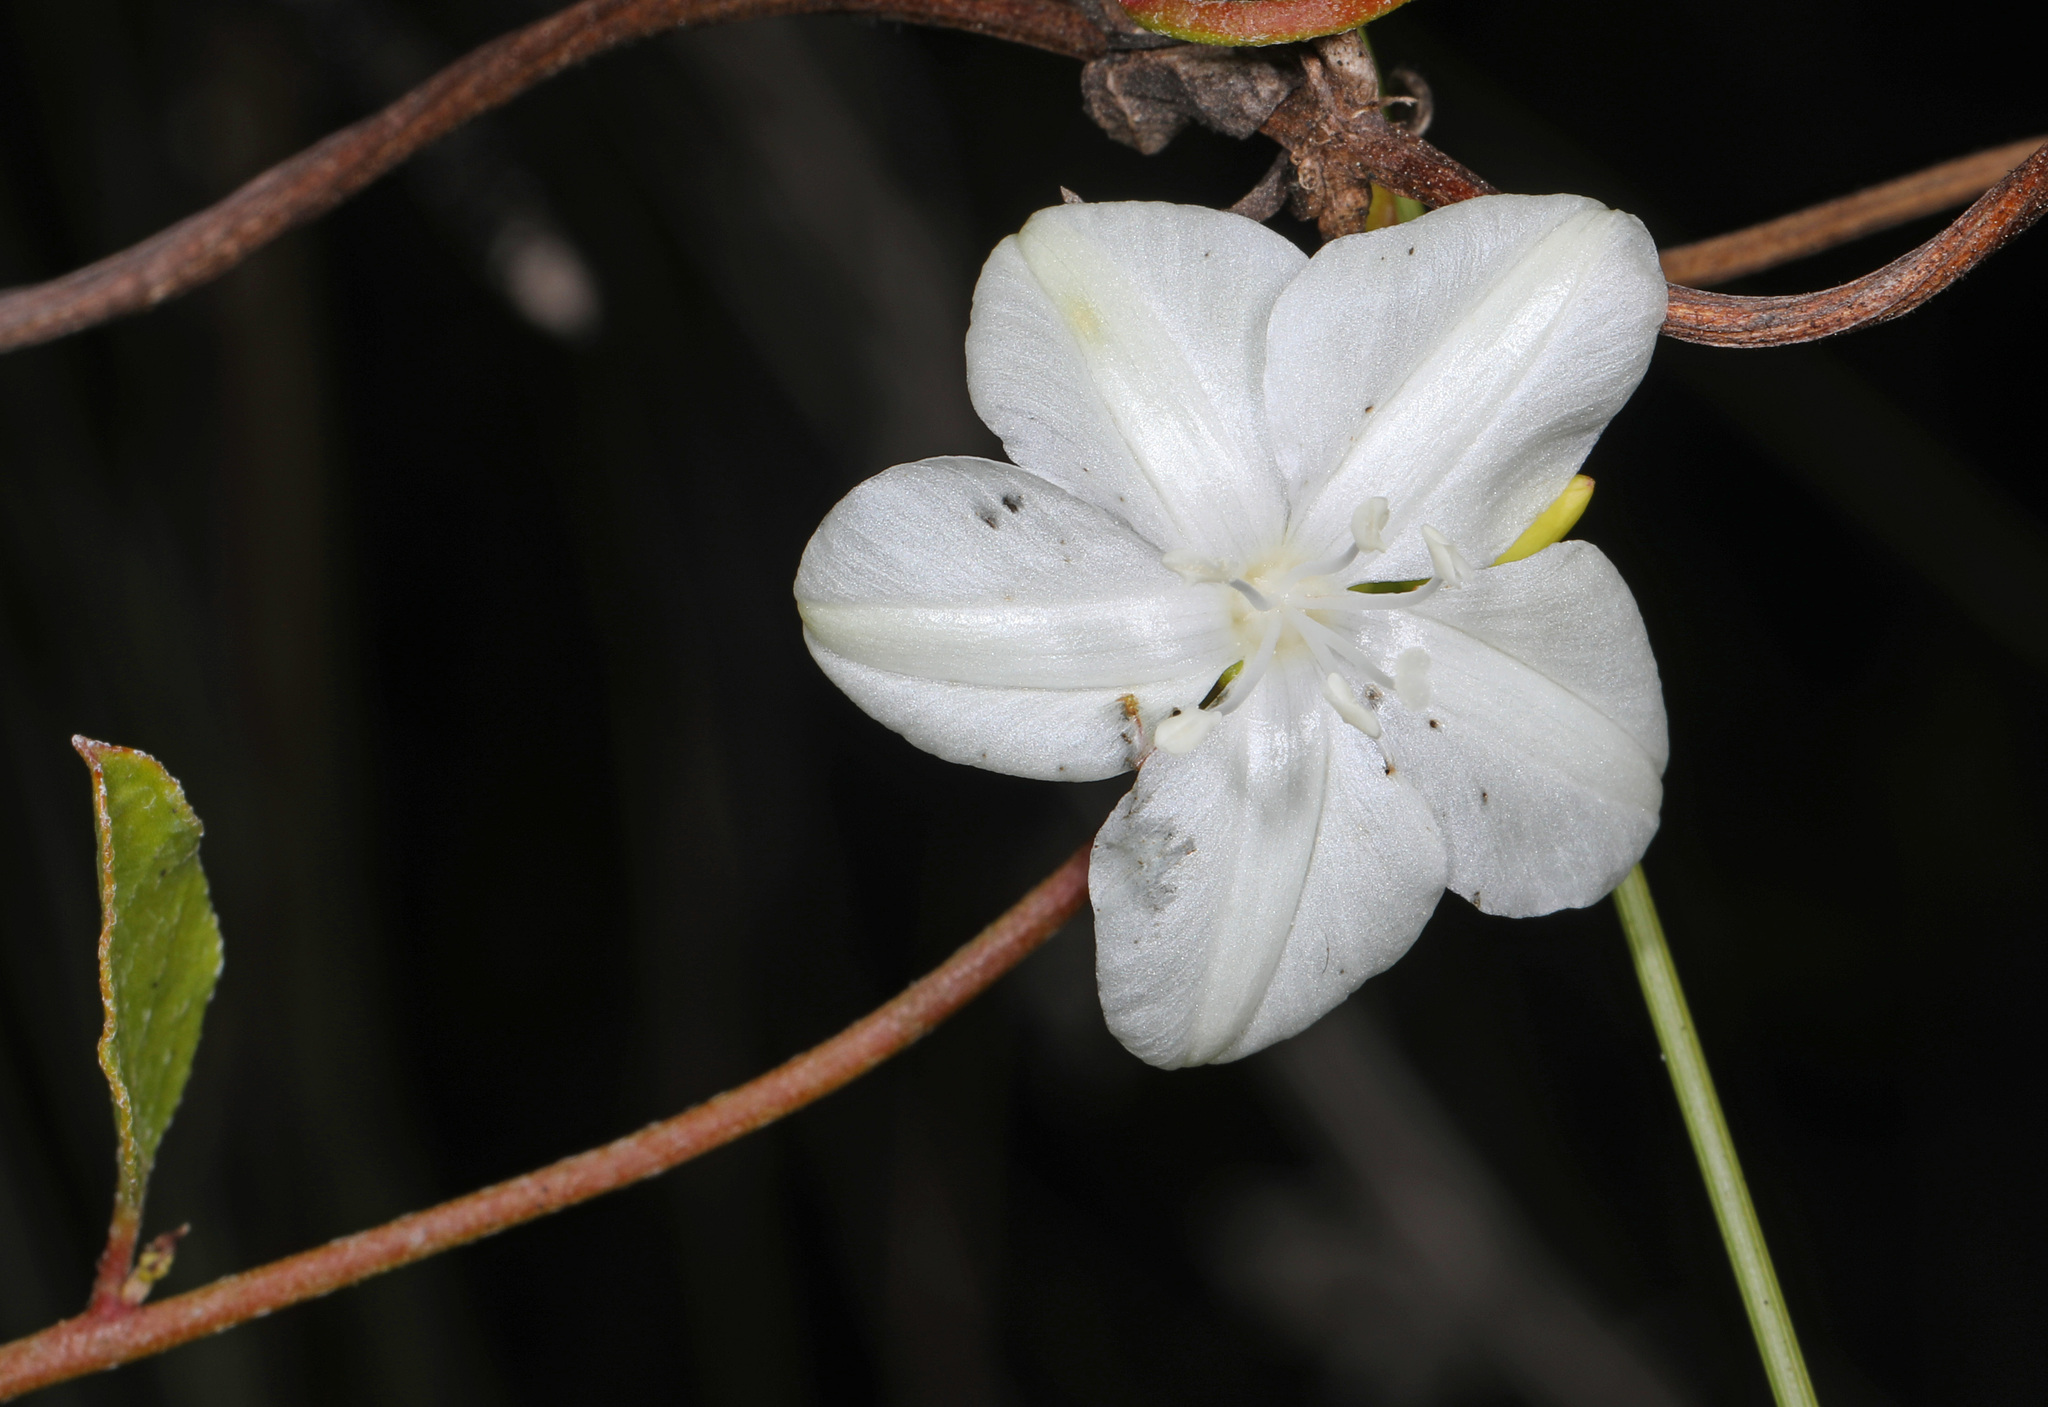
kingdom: Plantae
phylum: Tracheophyta
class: Magnoliopsida
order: Solanales
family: Convolvulaceae
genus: Jacquemontia
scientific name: Jacquemontia curtissii
